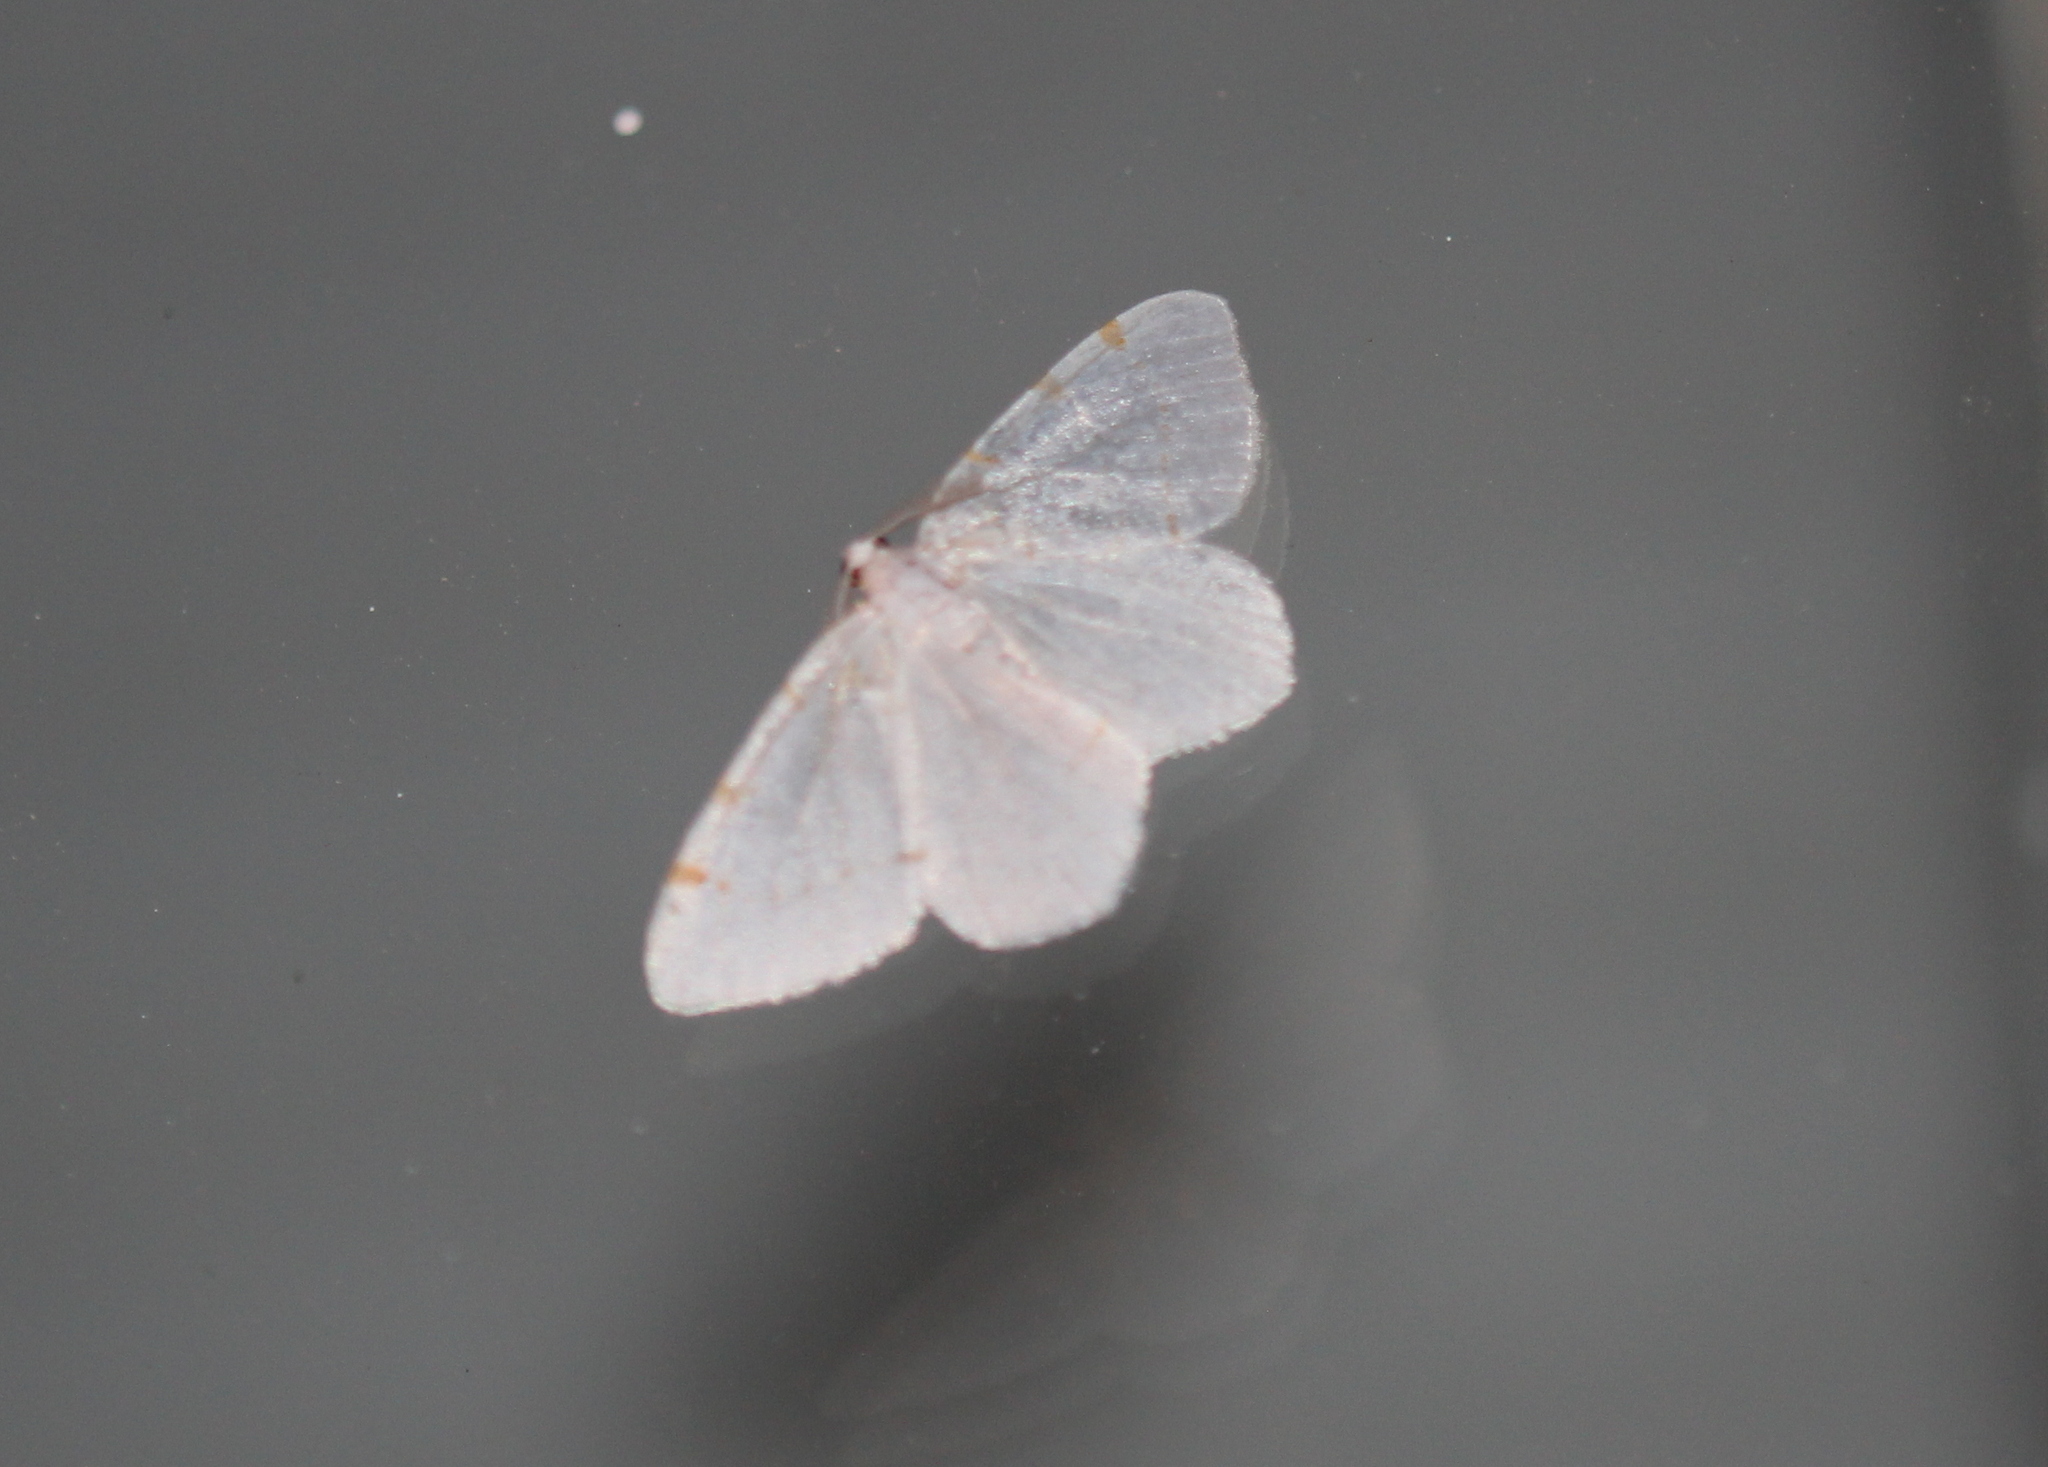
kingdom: Animalia
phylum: Arthropoda
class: Insecta
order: Lepidoptera
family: Geometridae
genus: Macaria
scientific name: Macaria pustularia
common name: Lesser maple spanworm moth
